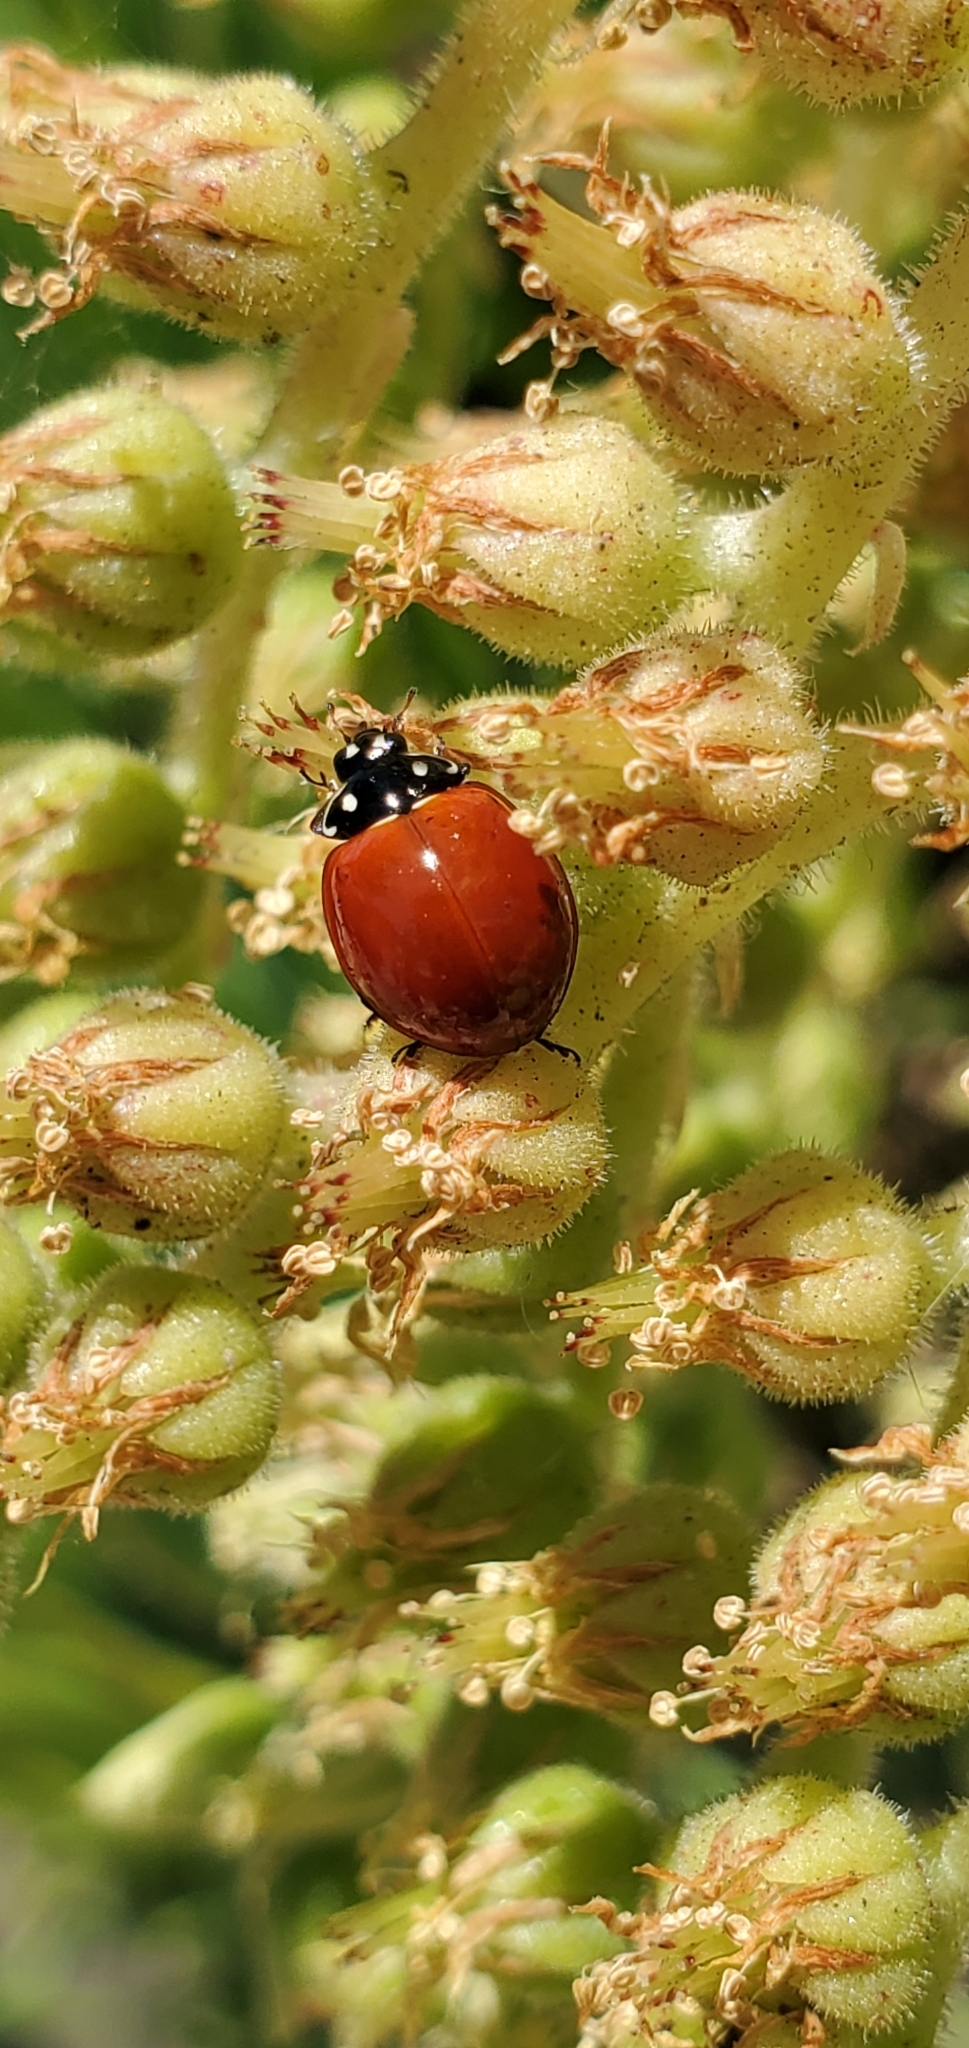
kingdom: Animalia
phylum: Arthropoda
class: Insecta
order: Coleoptera
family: Coccinellidae
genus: Cycloneda
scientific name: Cycloneda sanguinea
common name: Ladybird beetle
